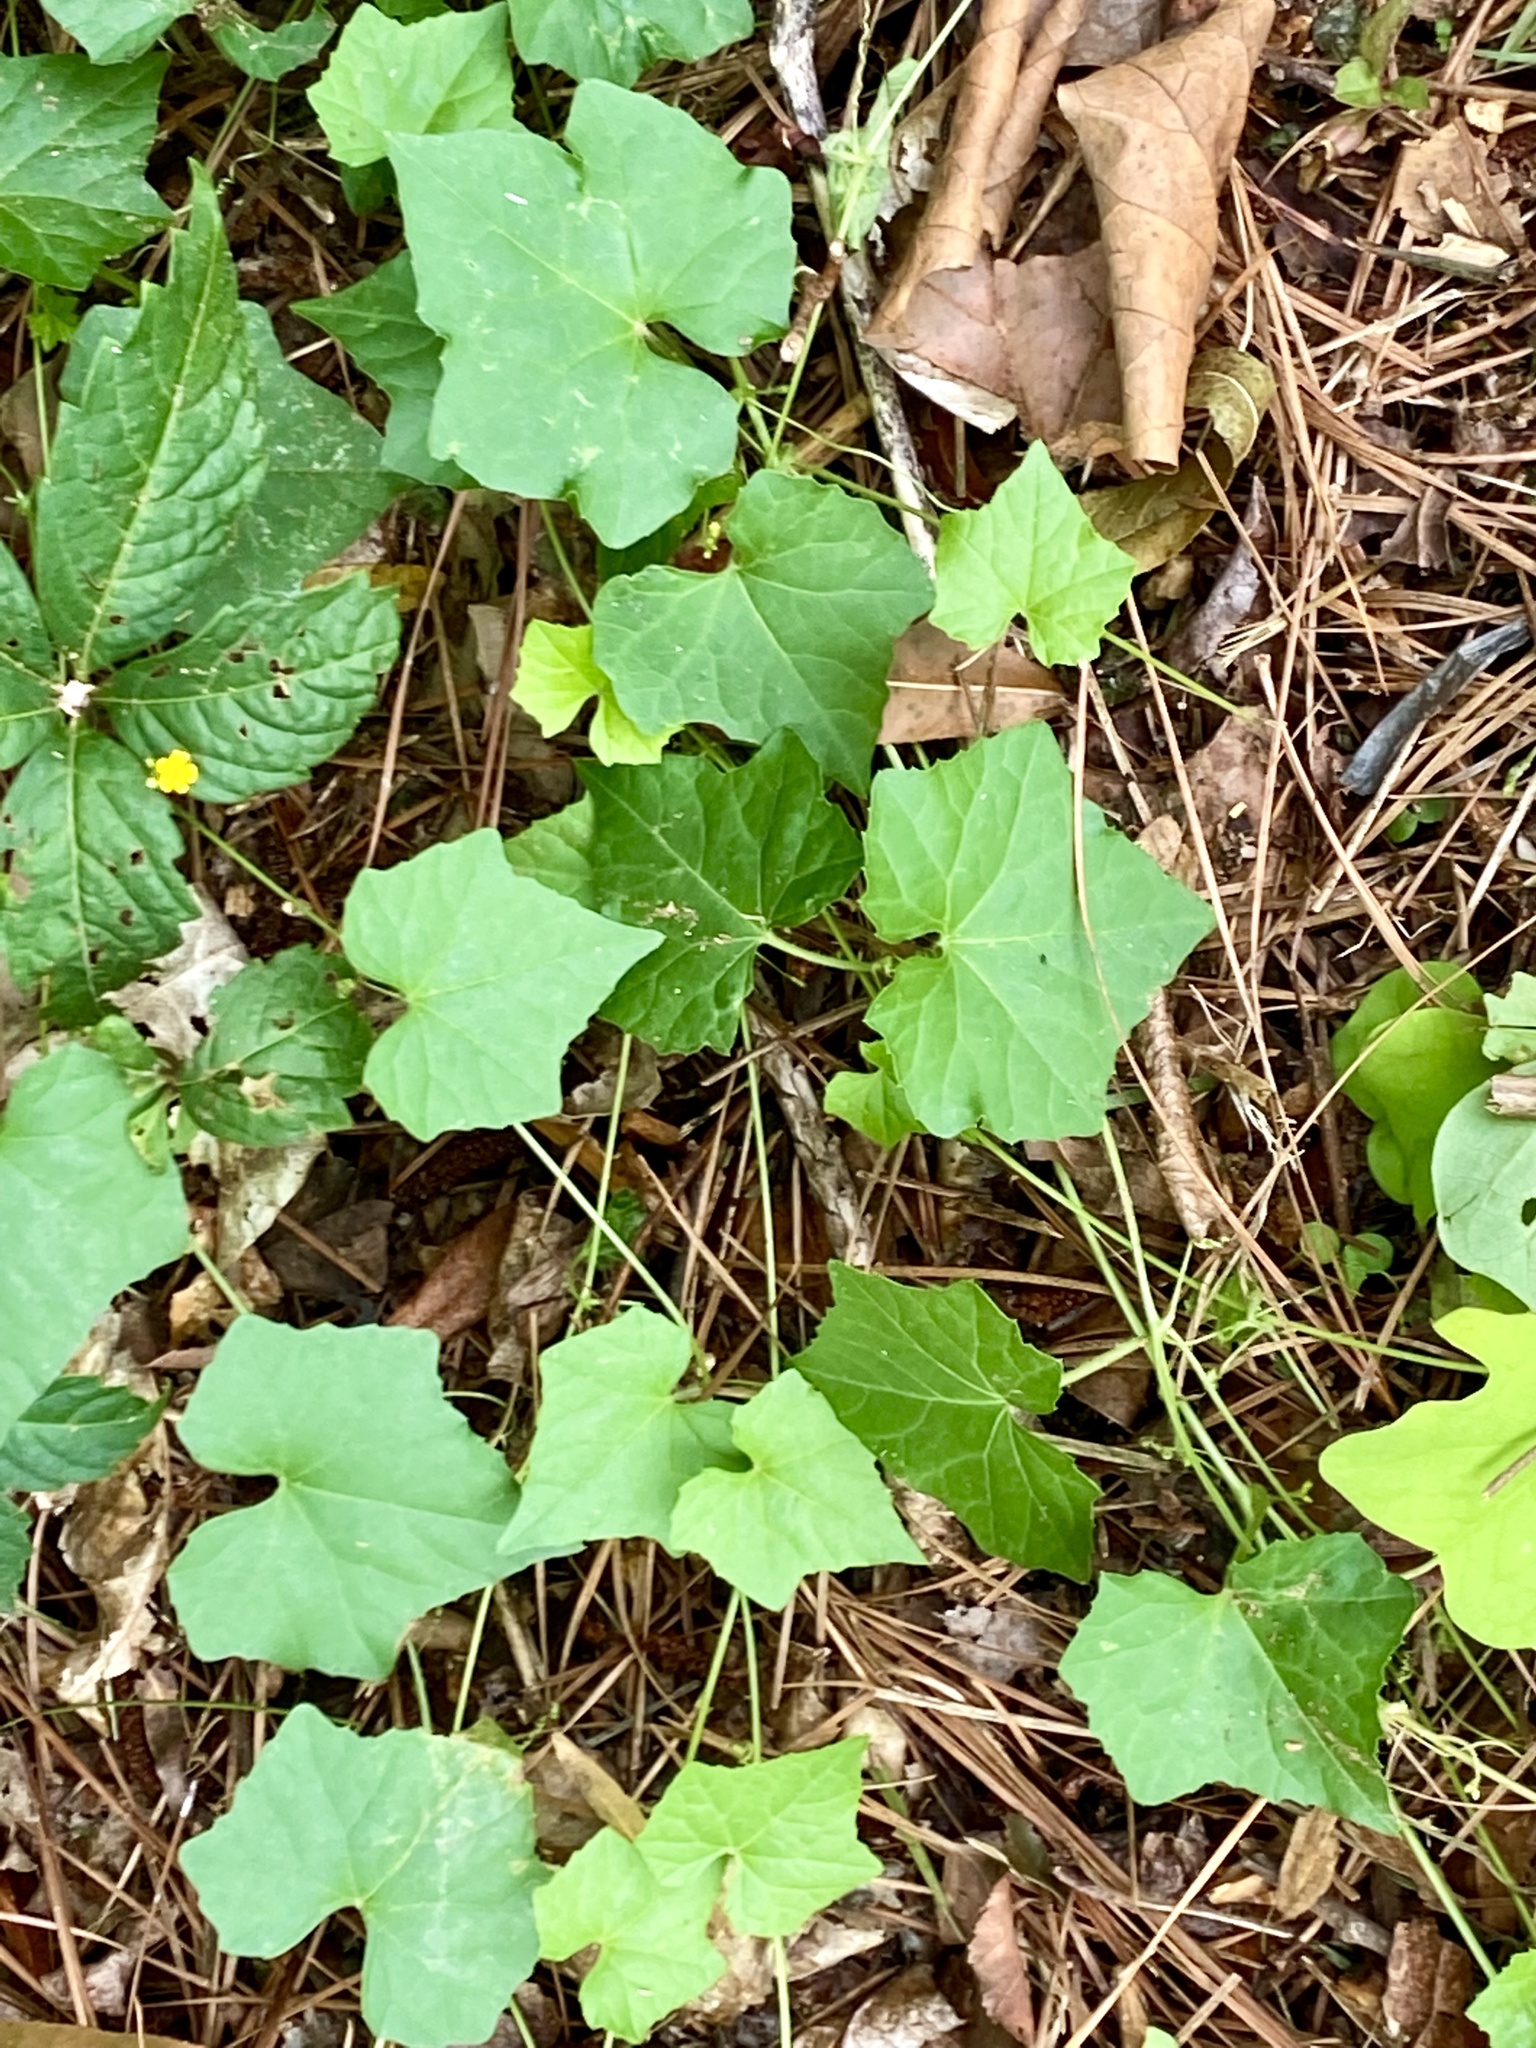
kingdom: Plantae
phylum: Tracheophyta
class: Magnoliopsida
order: Cucurbitales
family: Cucurbitaceae
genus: Melothria
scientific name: Melothria pendula
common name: Creeping-cucumber
